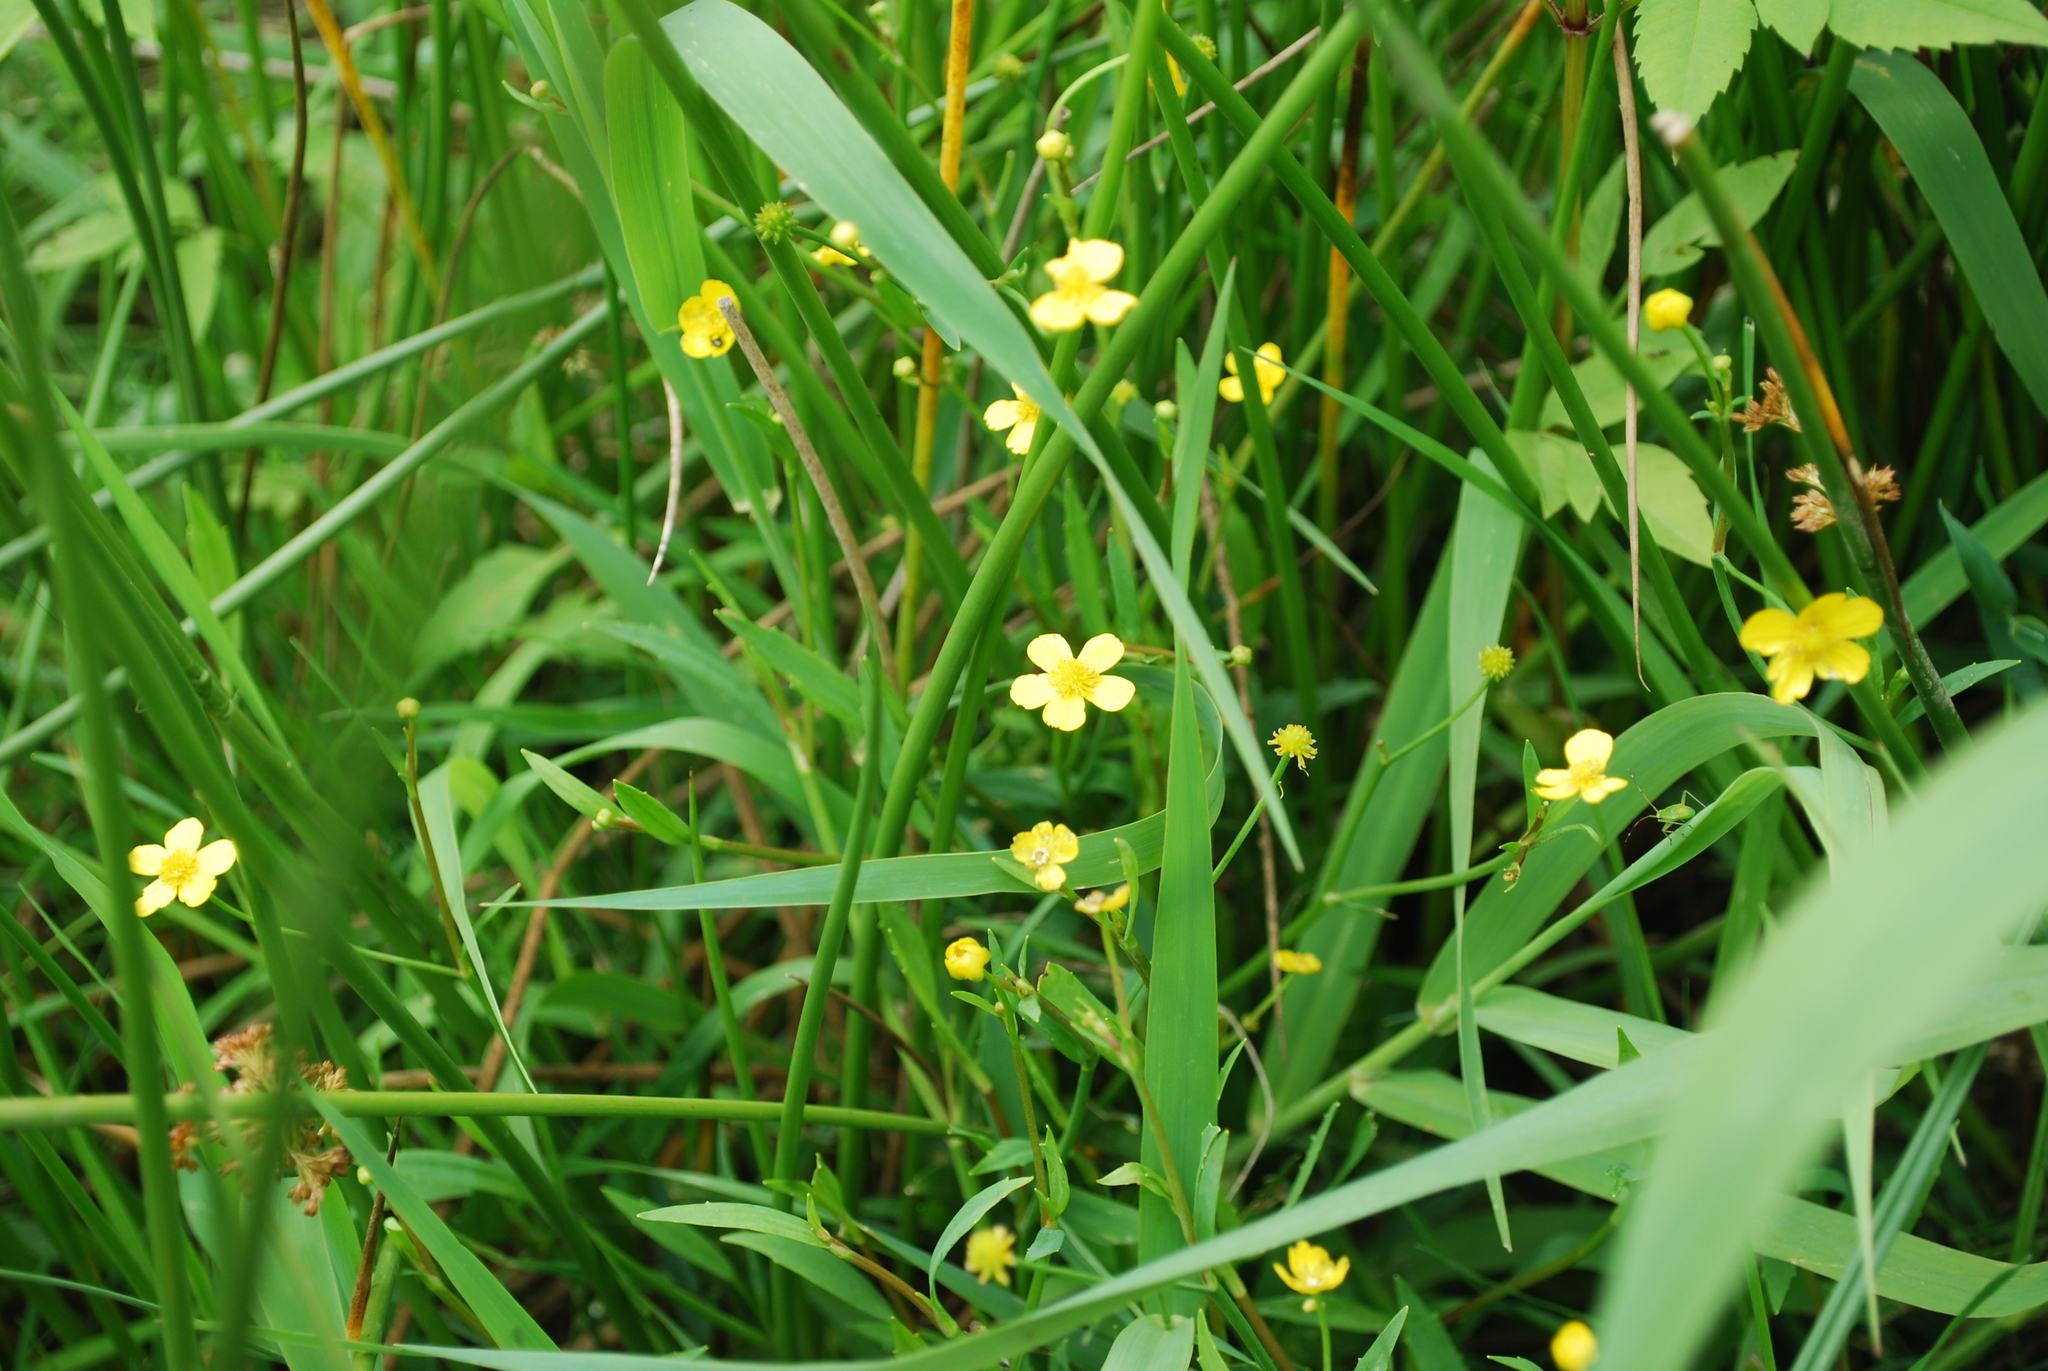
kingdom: Plantae
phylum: Tracheophyta
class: Magnoliopsida
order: Ranunculales
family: Ranunculaceae
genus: Ranunculus
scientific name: Ranunculus flammula
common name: Lesser spearwort
